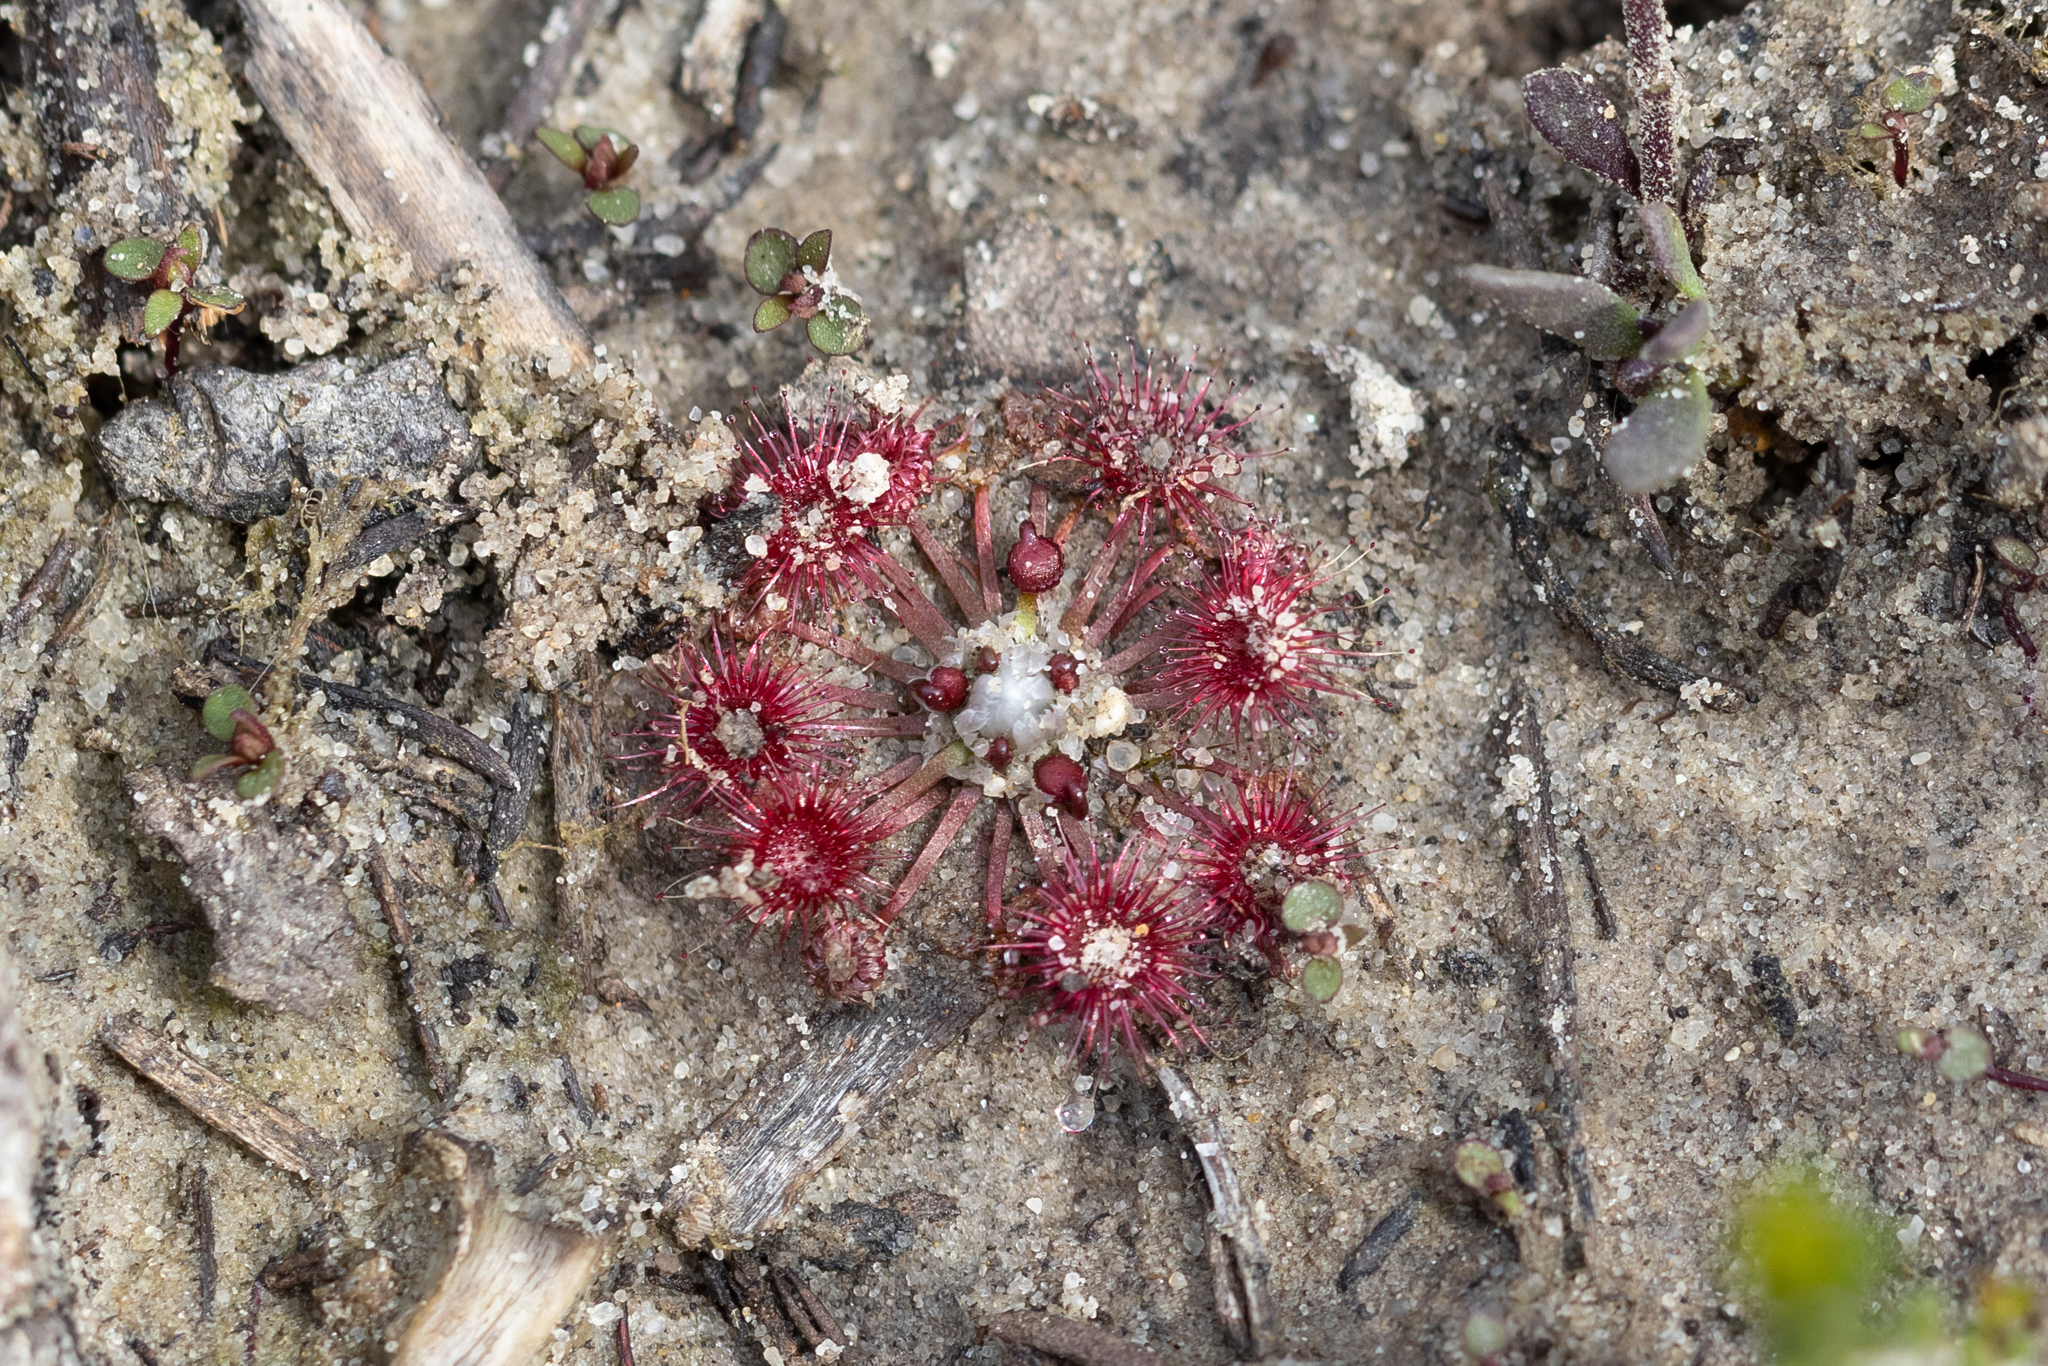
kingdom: Plantae
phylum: Tracheophyta
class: Magnoliopsida
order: Caryophyllales
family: Droseraceae
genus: Drosera
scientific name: Drosera pygmaea
